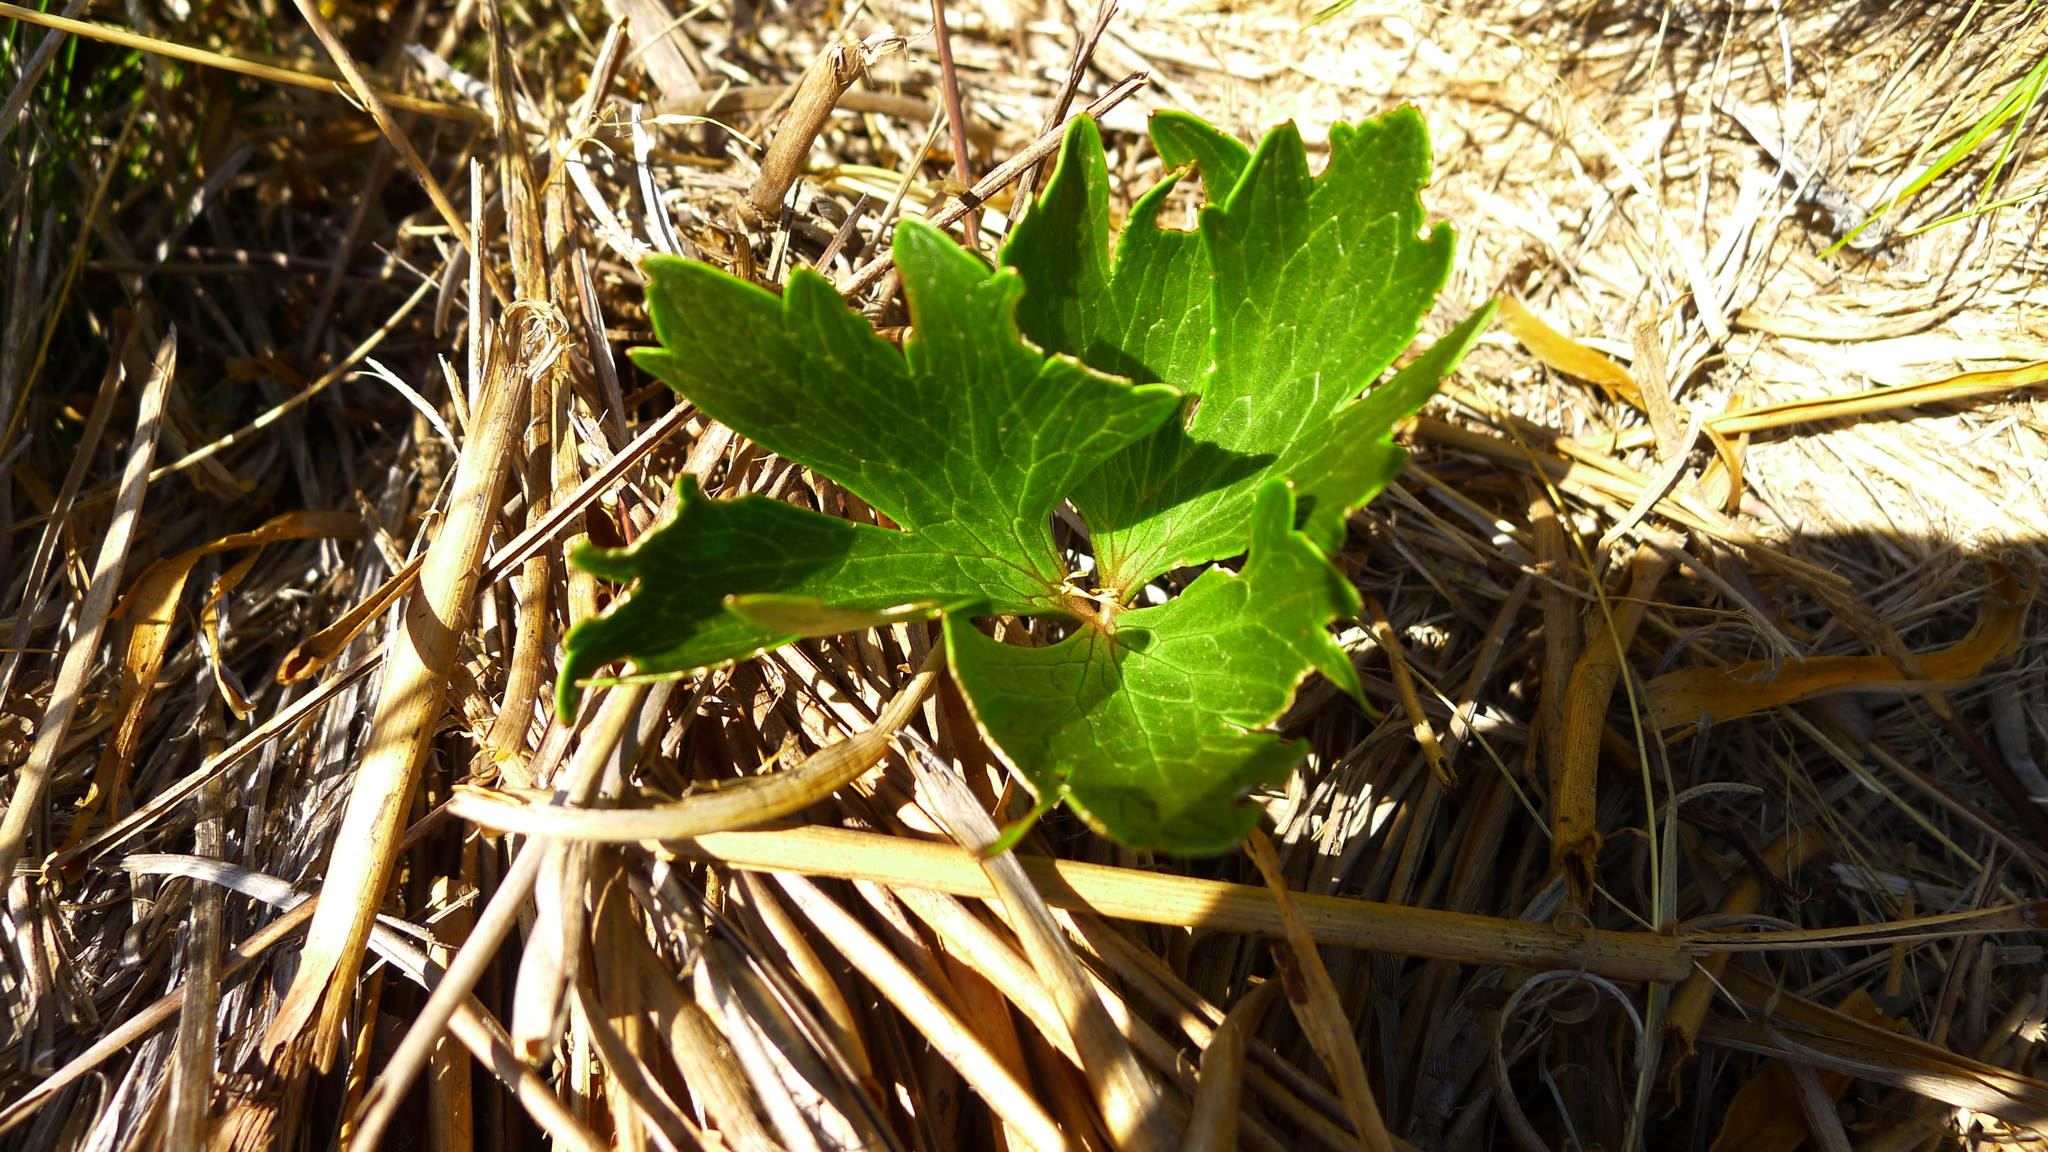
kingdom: Plantae
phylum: Tracheophyta
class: Magnoliopsida
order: Ranunculales
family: Ranunculaceae
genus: Ranunculus
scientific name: Ranunculus verticillatus
